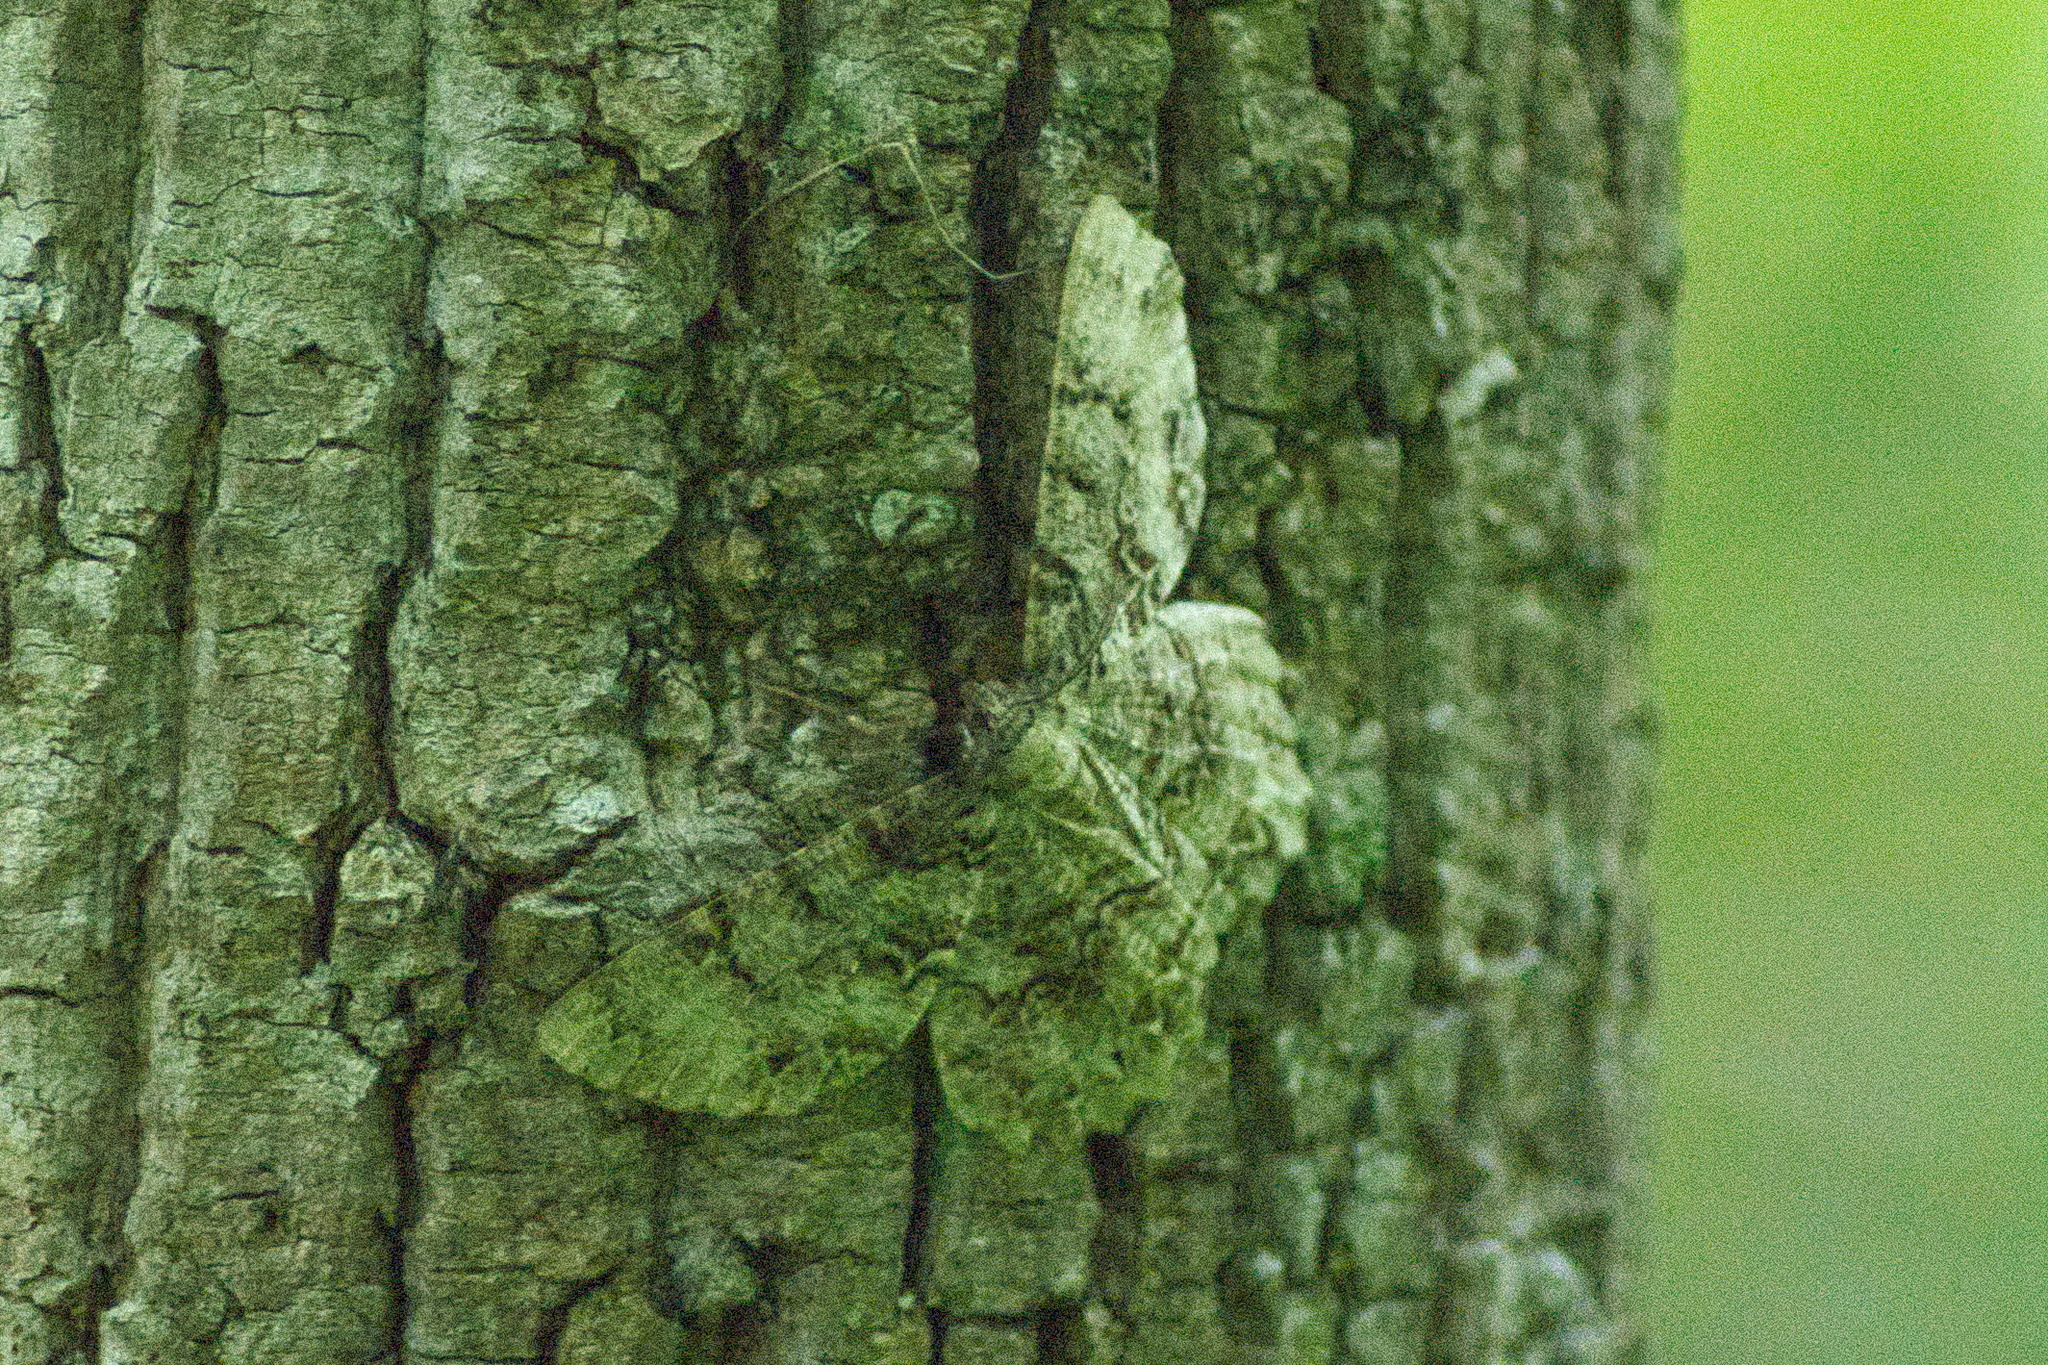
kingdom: Animalia
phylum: Arthropoda
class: Insecta
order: Lepidoptera
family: Geometridae
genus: Epimecis
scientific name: Epimecis hortaria
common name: Tulip-tree beauty
